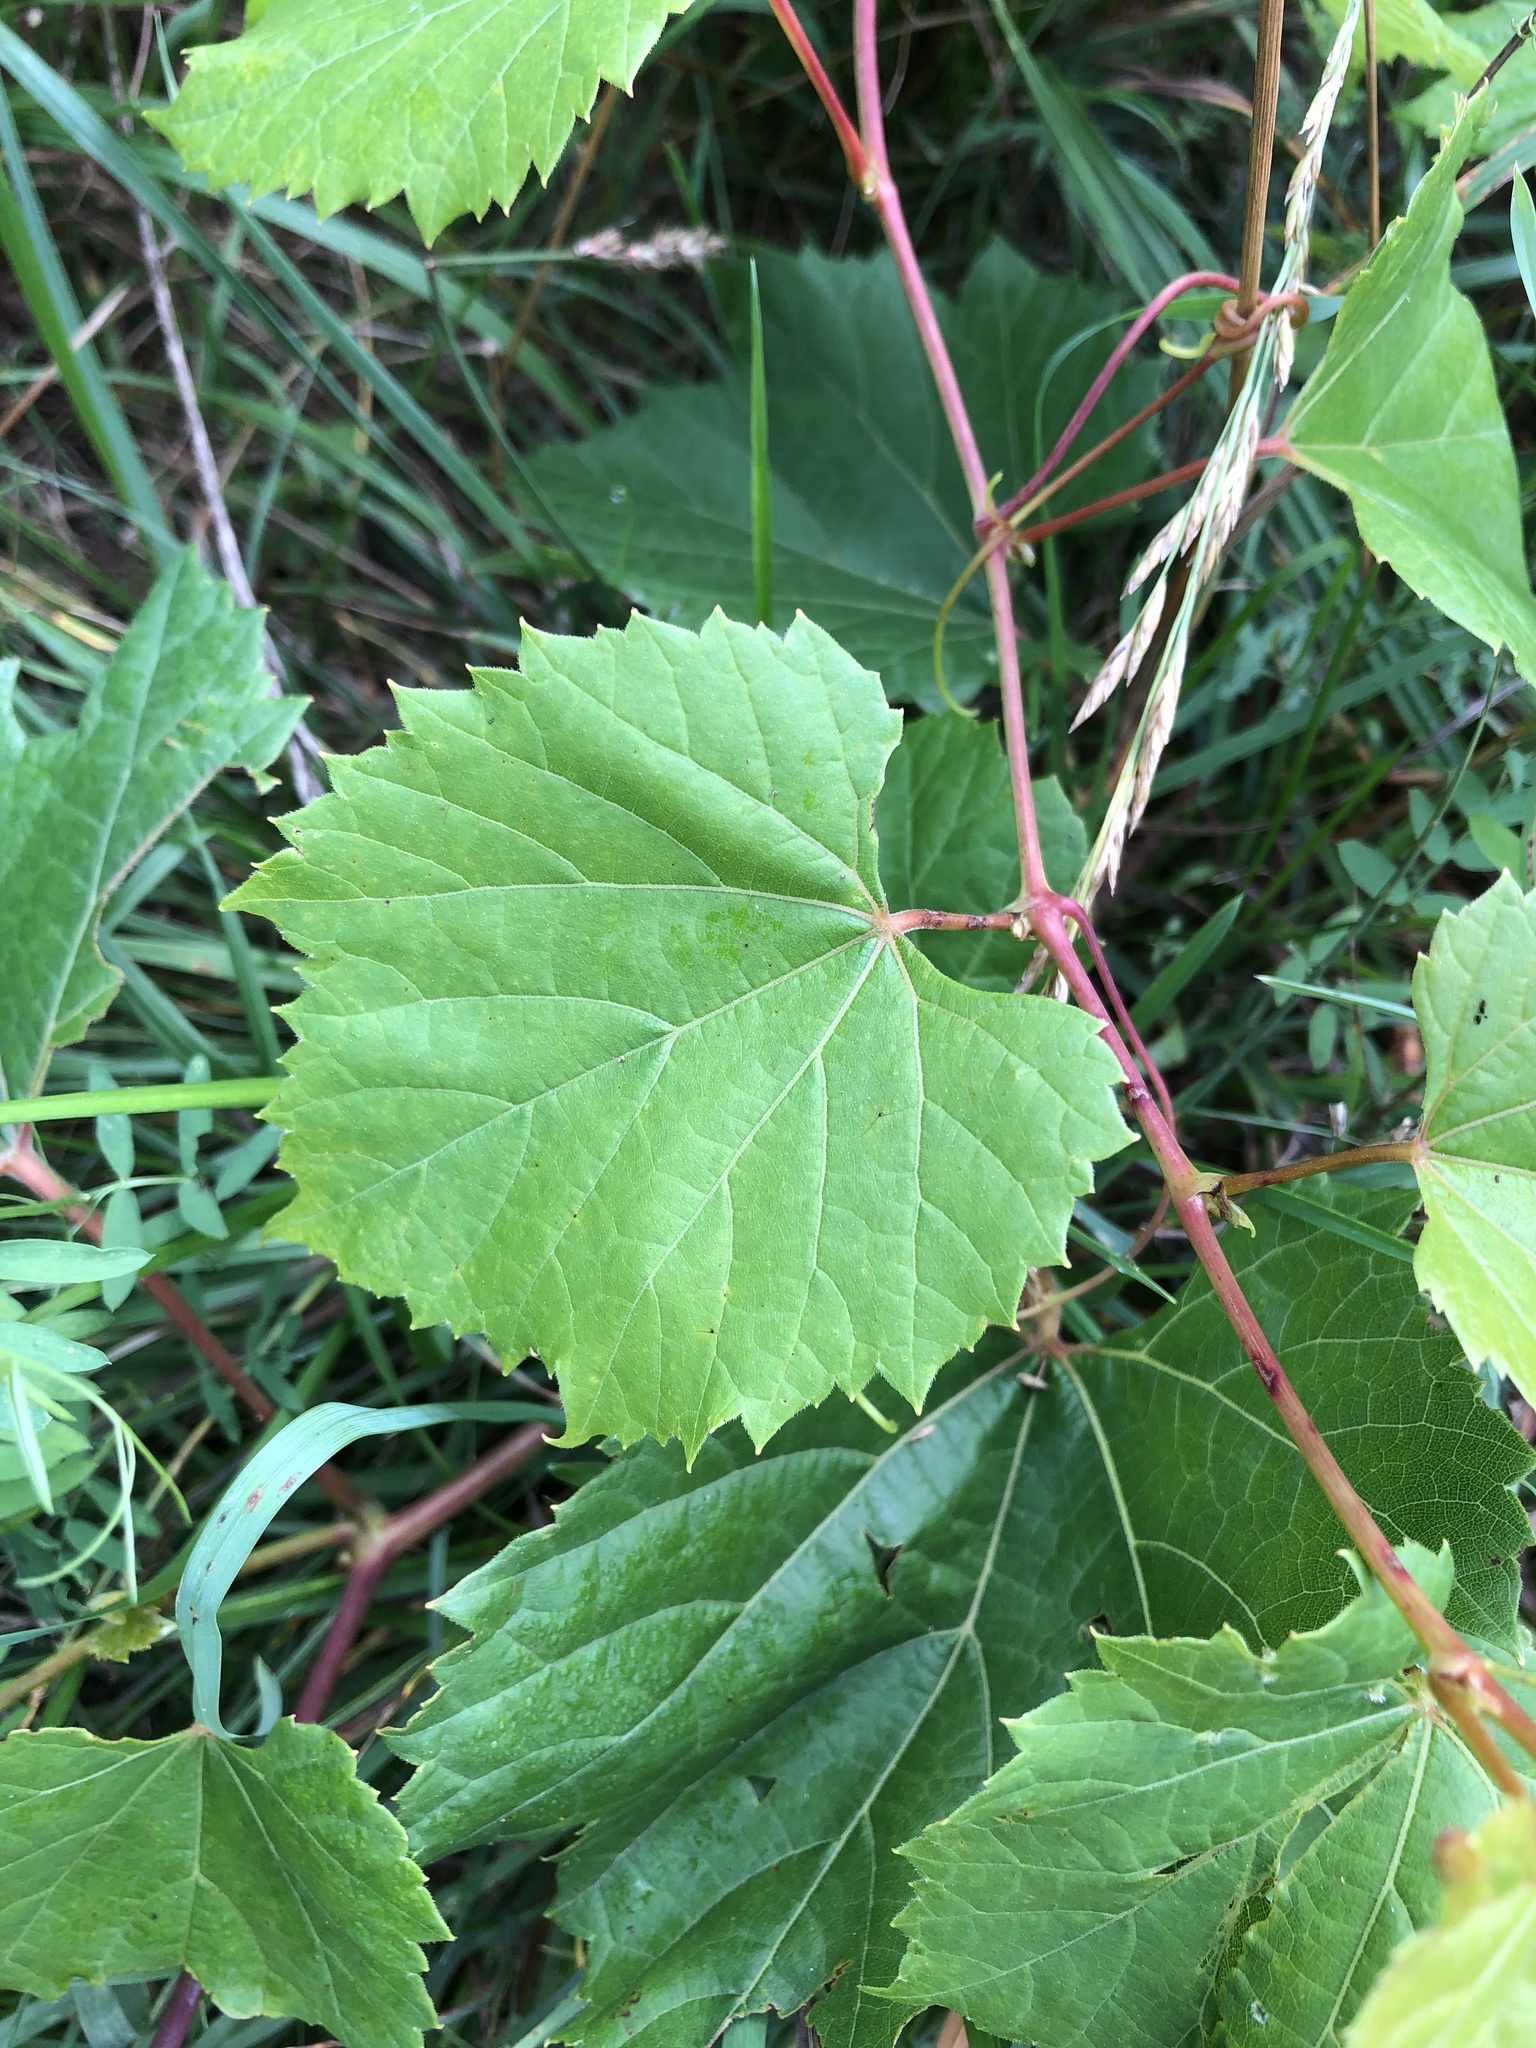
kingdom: Plantae
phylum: Tracheophyta
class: Magnoliopsida
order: Vitales
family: Vitaceae
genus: Vitis
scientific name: Vitis riparia
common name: Frost grape
